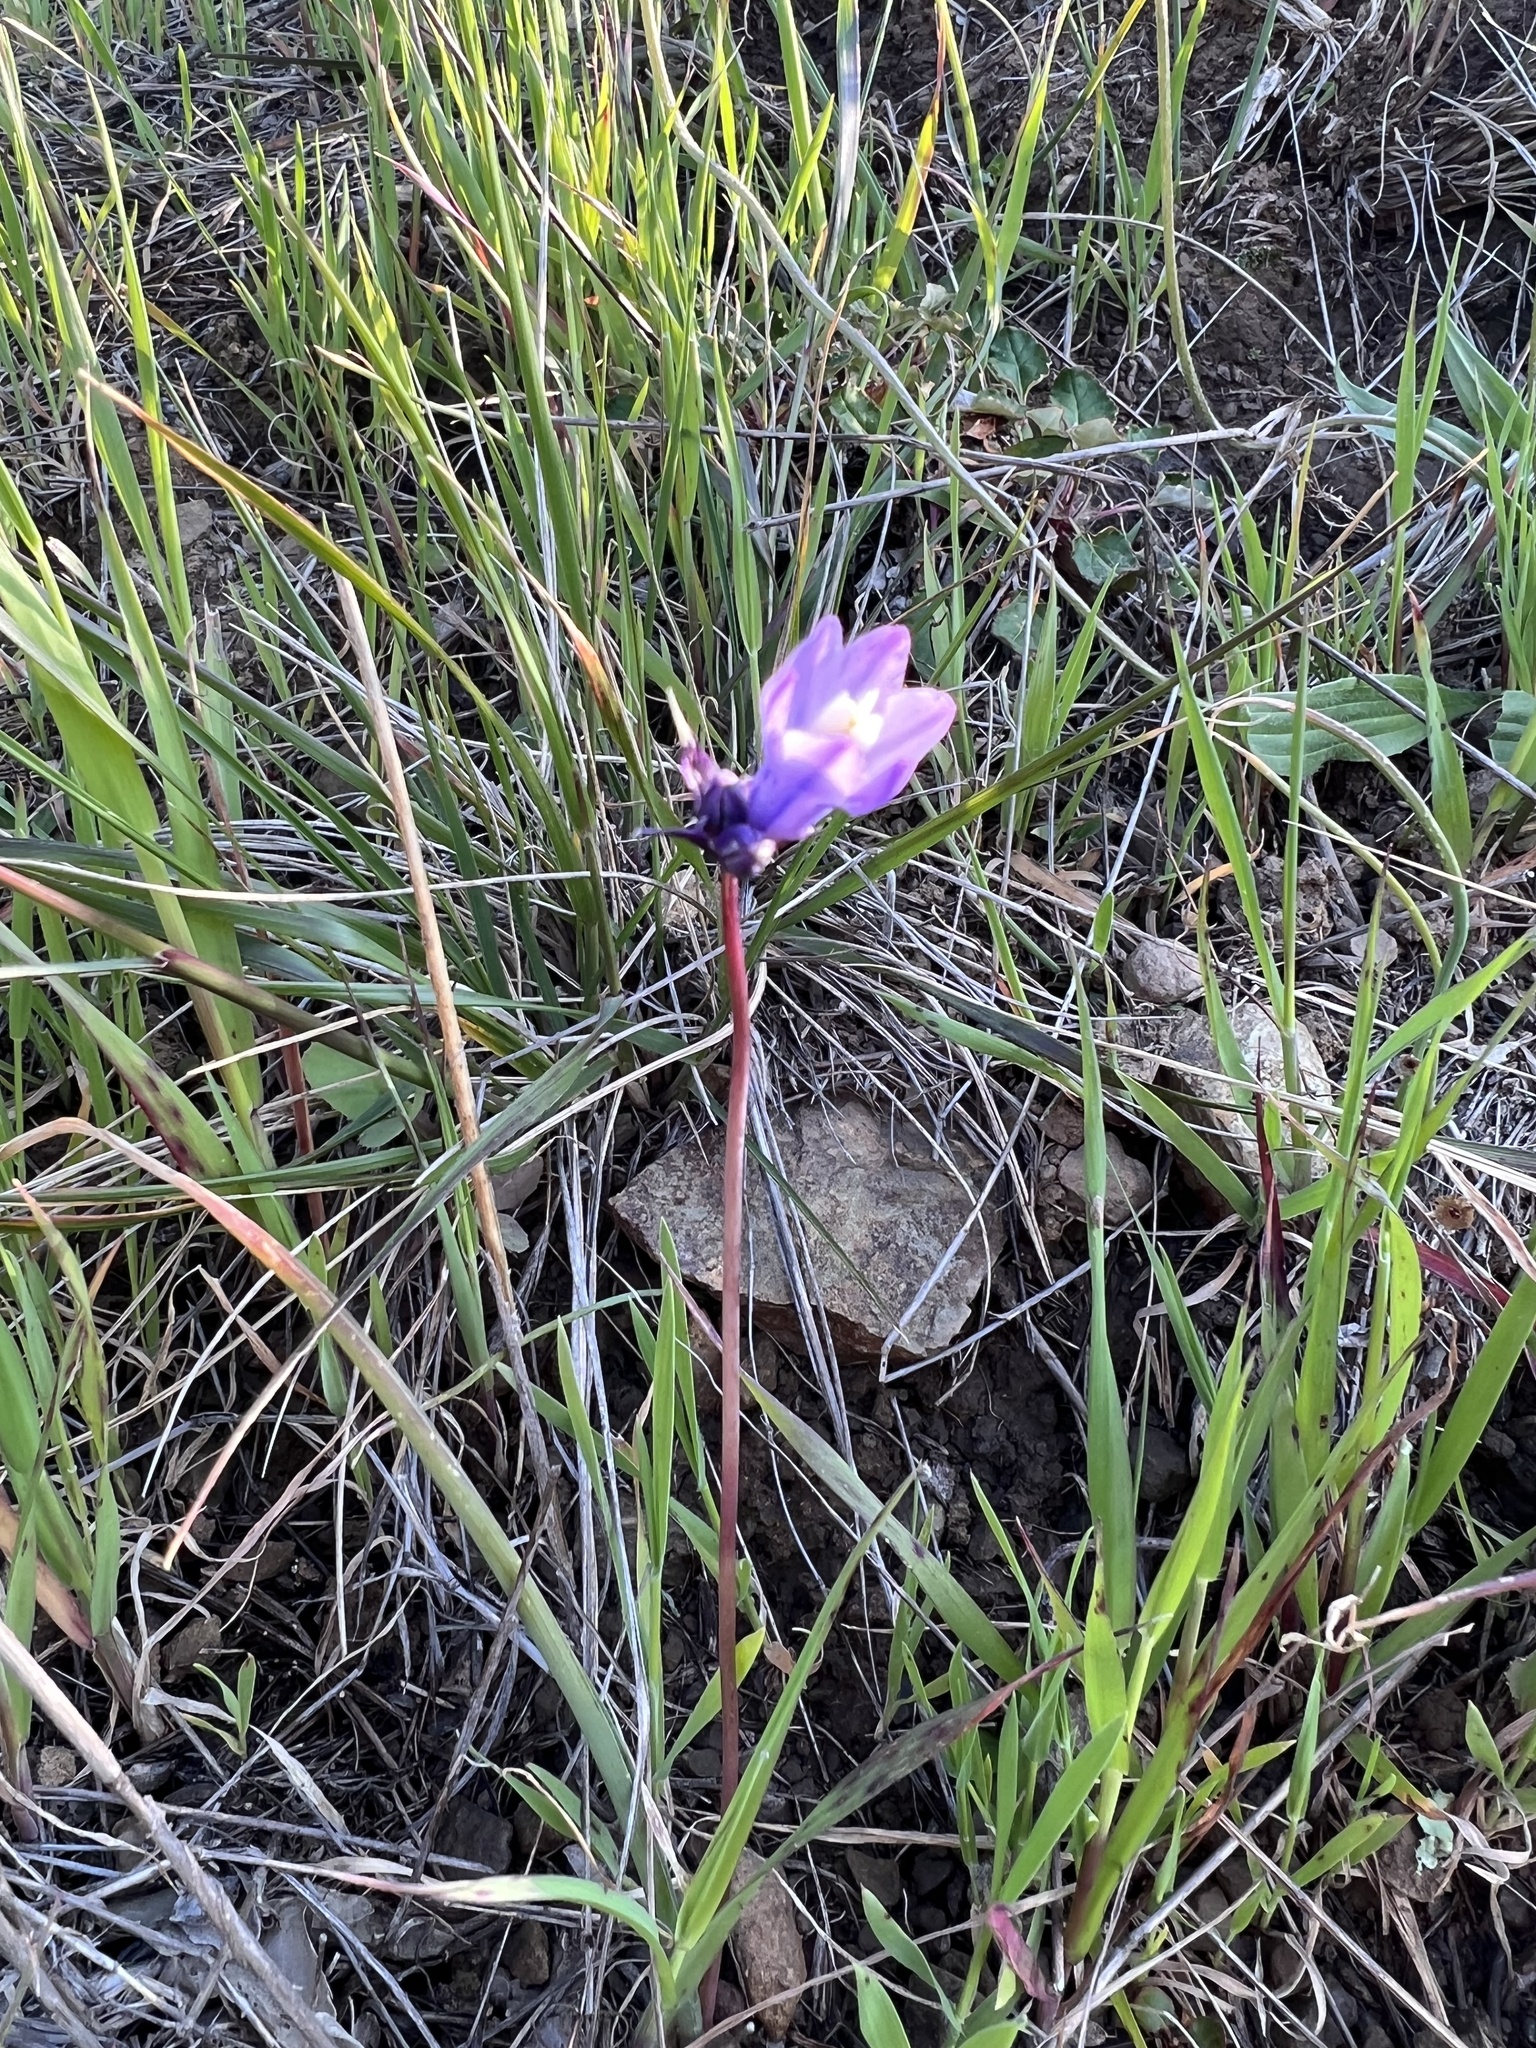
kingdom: Plantae
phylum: Tracheophyta
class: Liliopsida
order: Asparagales
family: Asparagaceae
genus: Dipterostemon
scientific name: Dipterostemon capitatus
